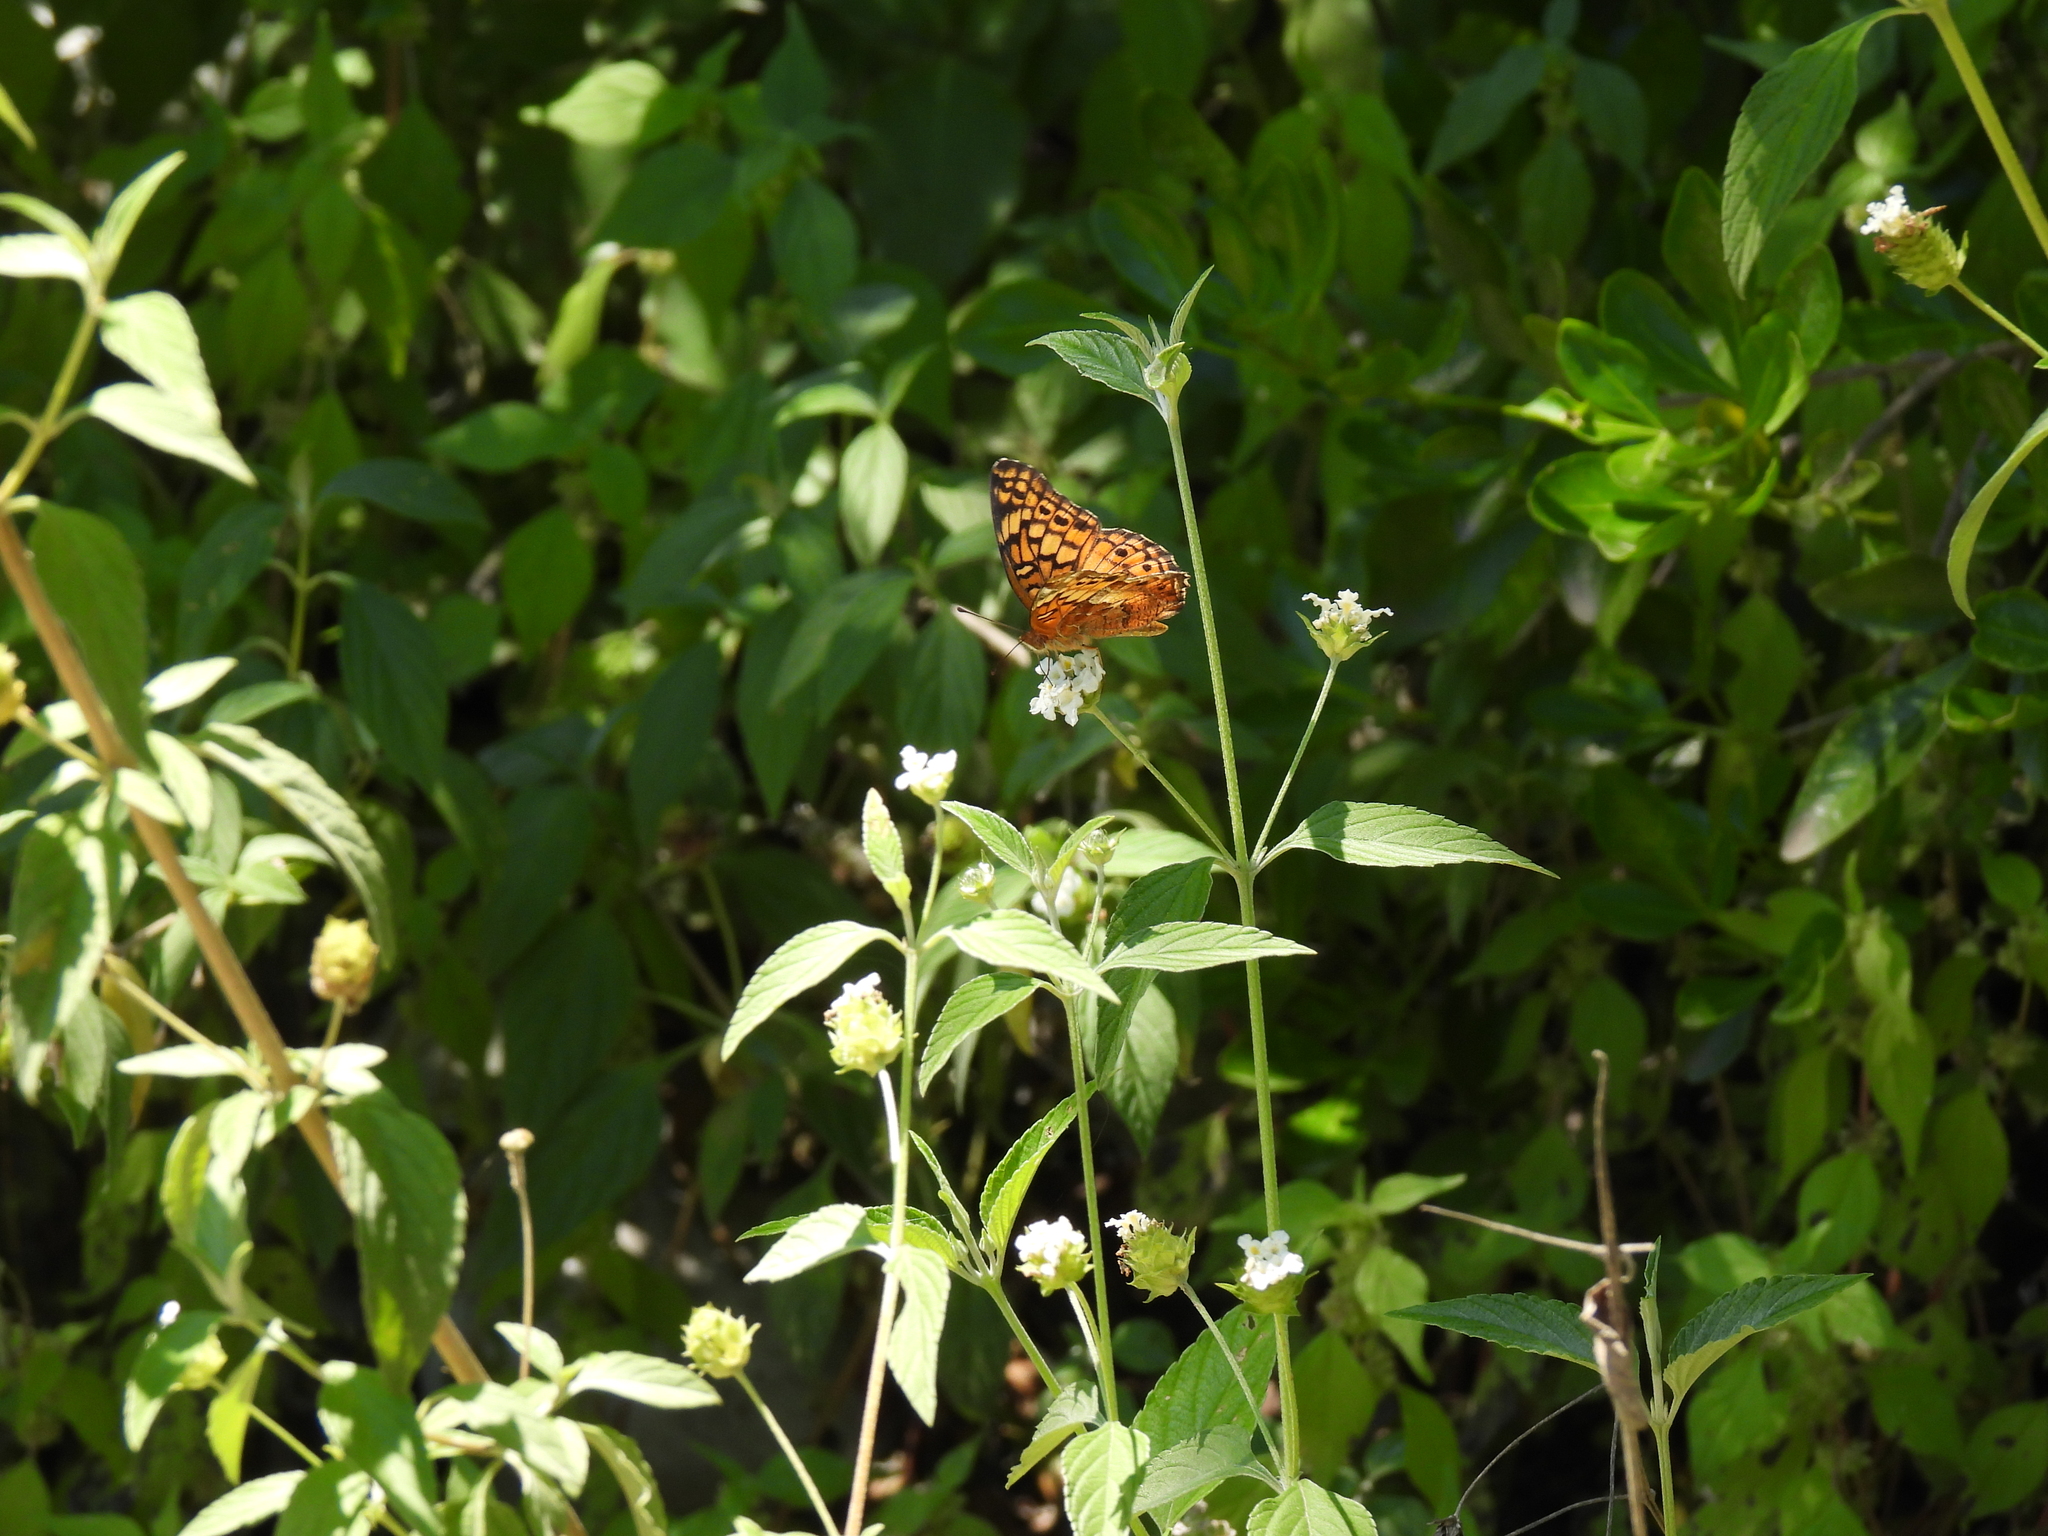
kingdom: Animalia
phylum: Arthropoda
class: Insecta
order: Lepidoptera
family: Nymphalidae
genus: Euptoieta
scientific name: Euptoieta claudia
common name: Variegated fritillary
